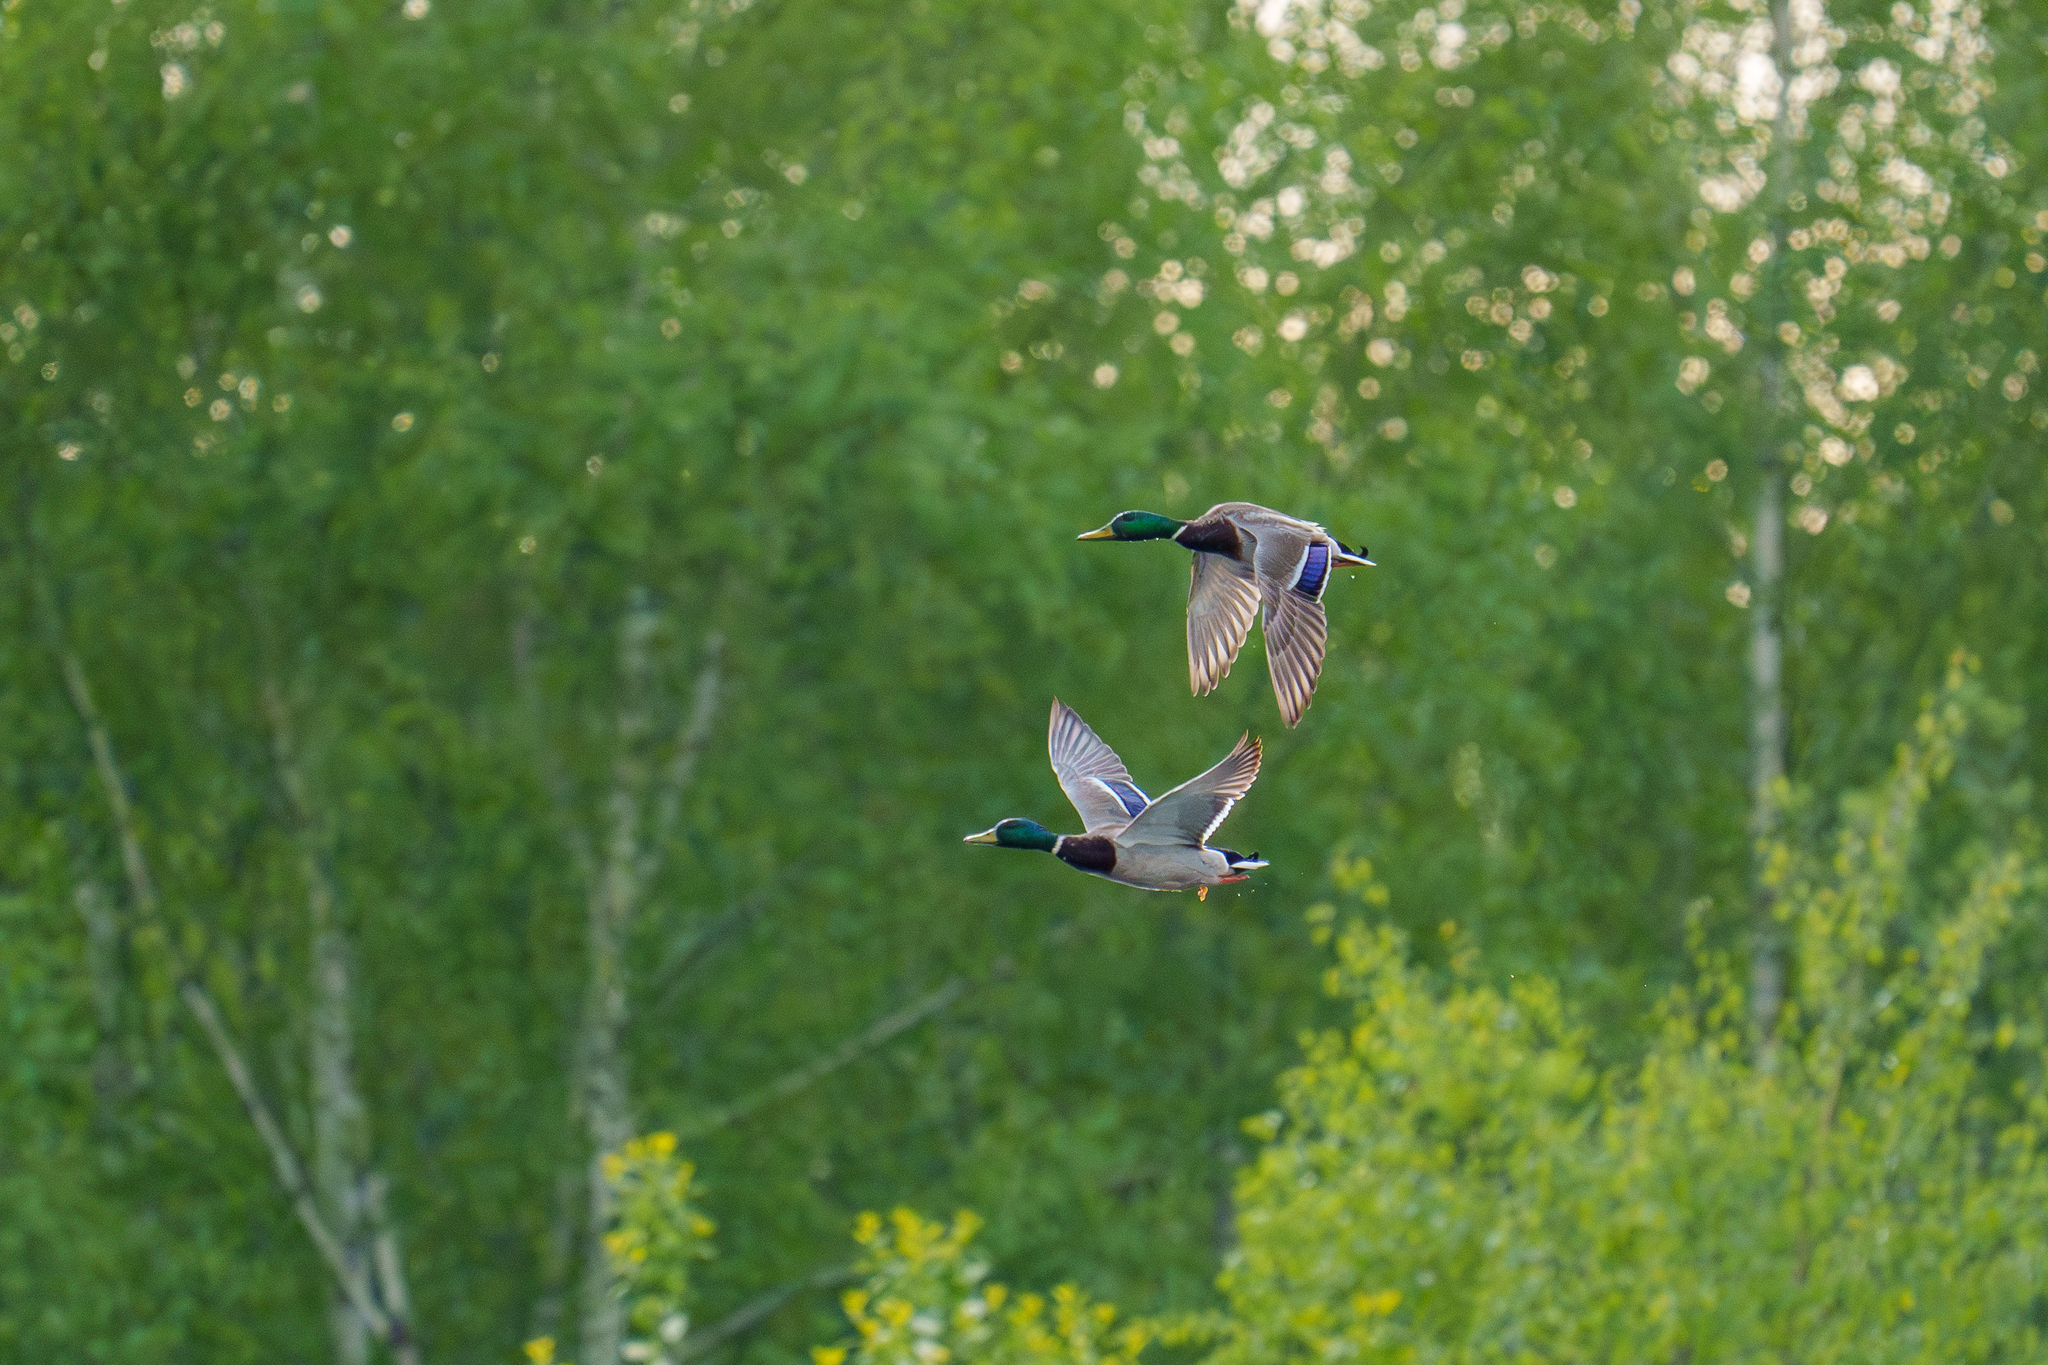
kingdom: Animalia
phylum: Chordata
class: Aves
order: Anseriformes
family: Anatidae
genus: Anas
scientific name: Anas platyrhynchos
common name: Mallard
